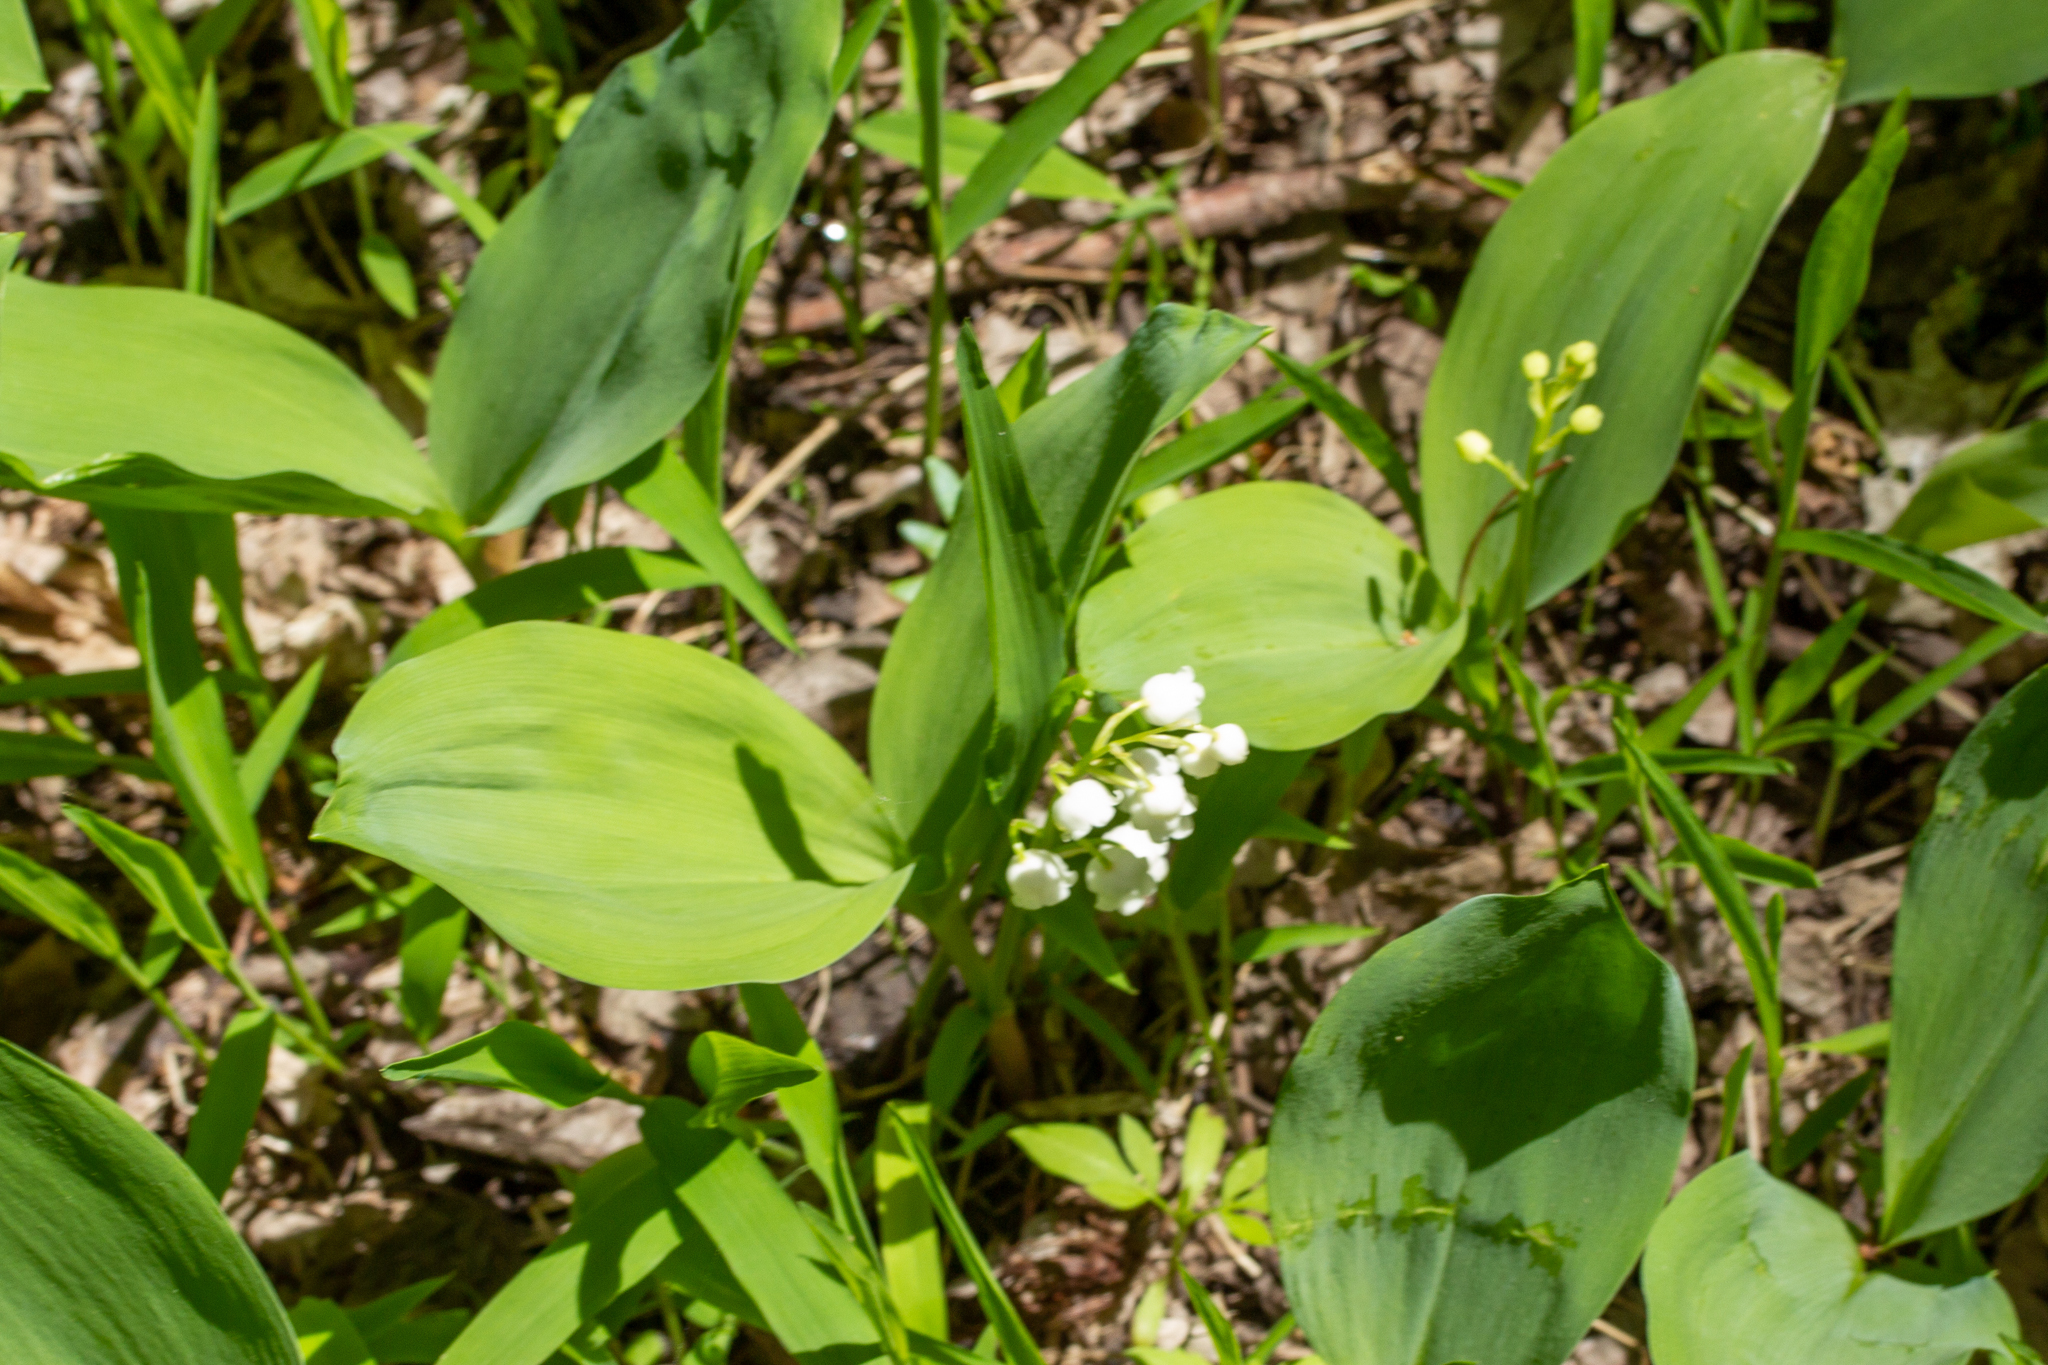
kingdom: Plantae
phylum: Tracheophyta
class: Liliopsida
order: Asparagales
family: Asparagaceae
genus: Convallaria
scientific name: Convallaria majalis
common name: Lily-of-the-valley
